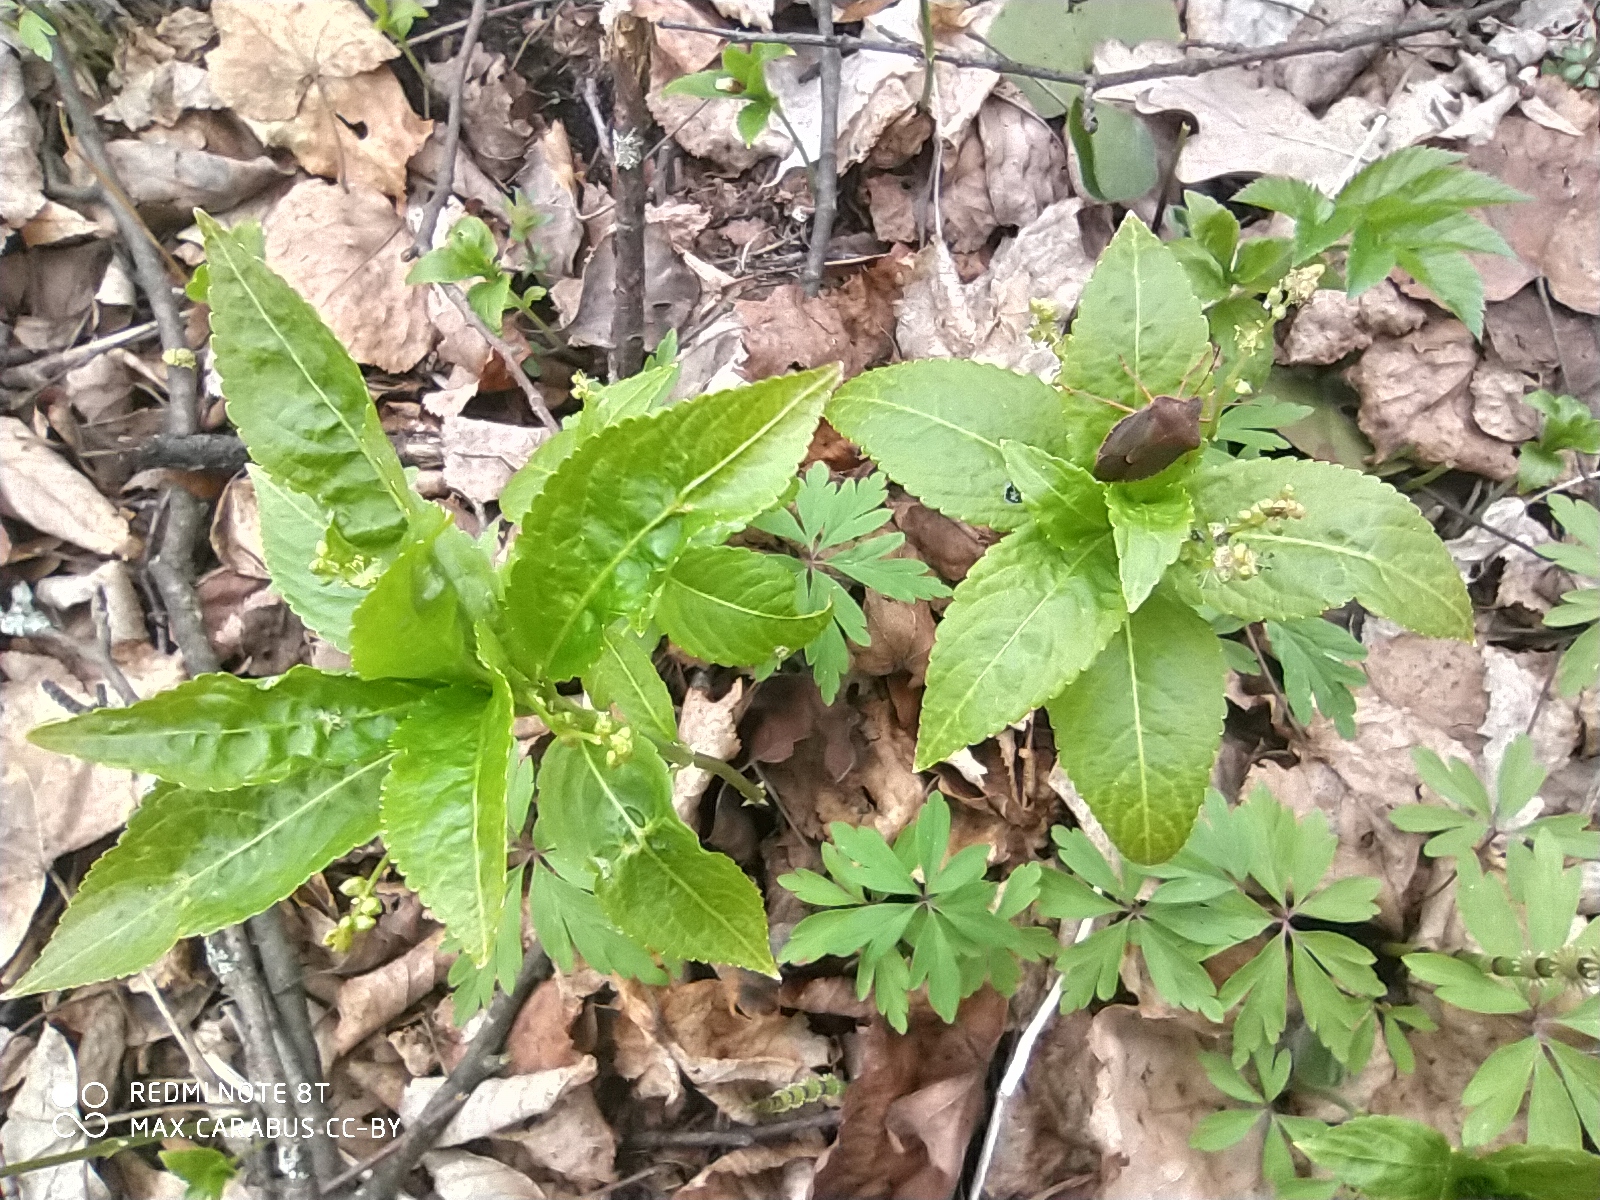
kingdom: Plantae
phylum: Tracheophyta
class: Magnoliopsida
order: Malpighiales
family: Euphorbiaceae
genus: Mercurialis
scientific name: Mercurialis perennis
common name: Dog mercury
